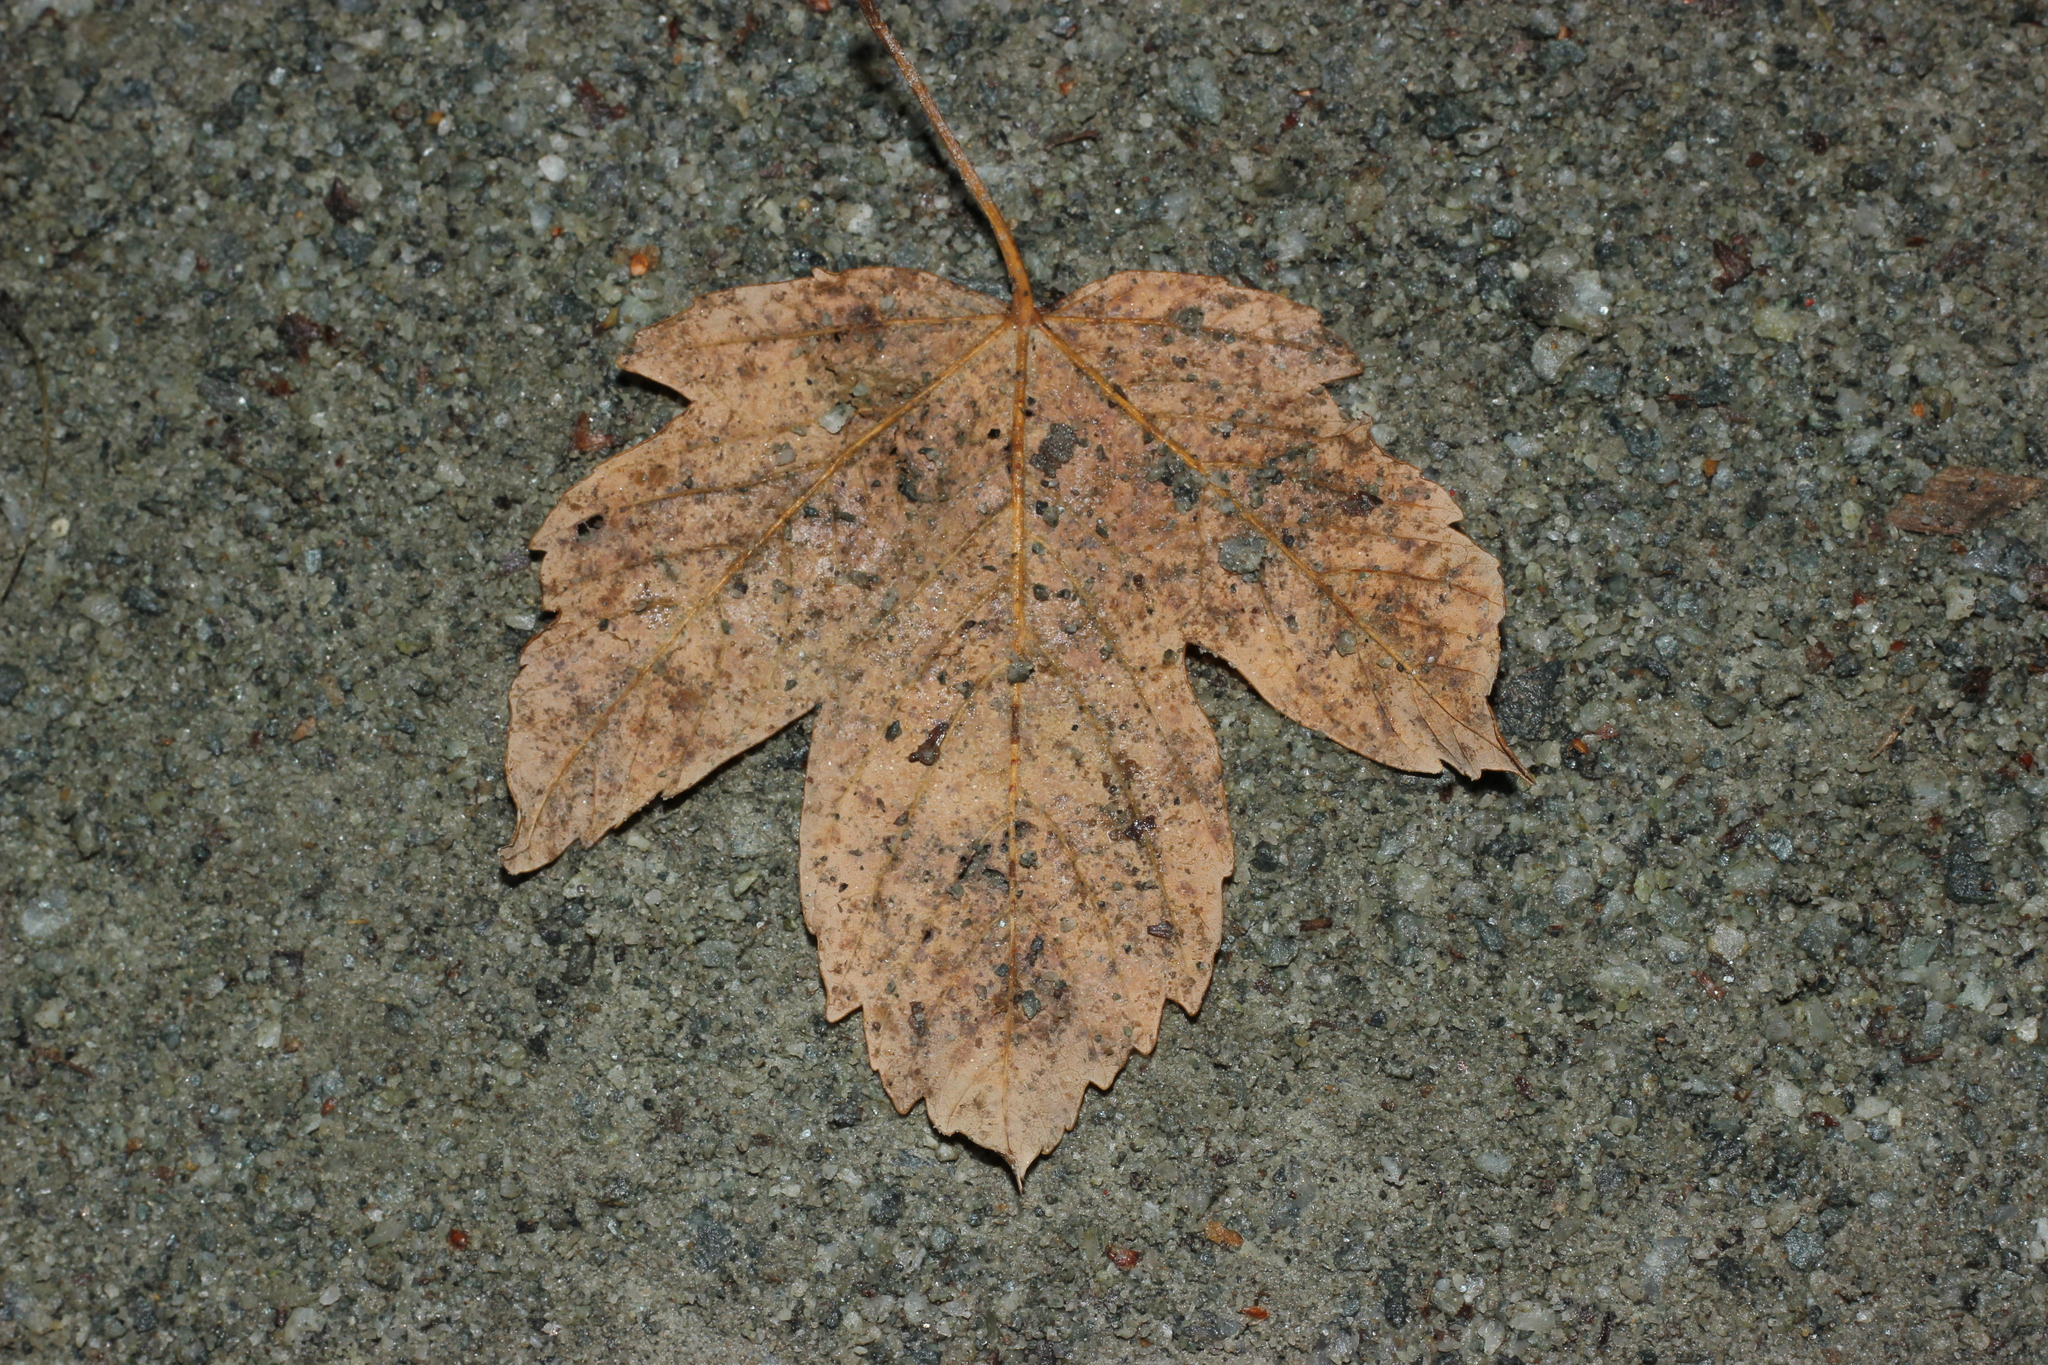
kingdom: Plantae
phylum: Tracheophyta
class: Magnoliopsida
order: Sapindales
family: Sapindaceae
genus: Acer
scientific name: Acer pseudoplatanus
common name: Sycamore
